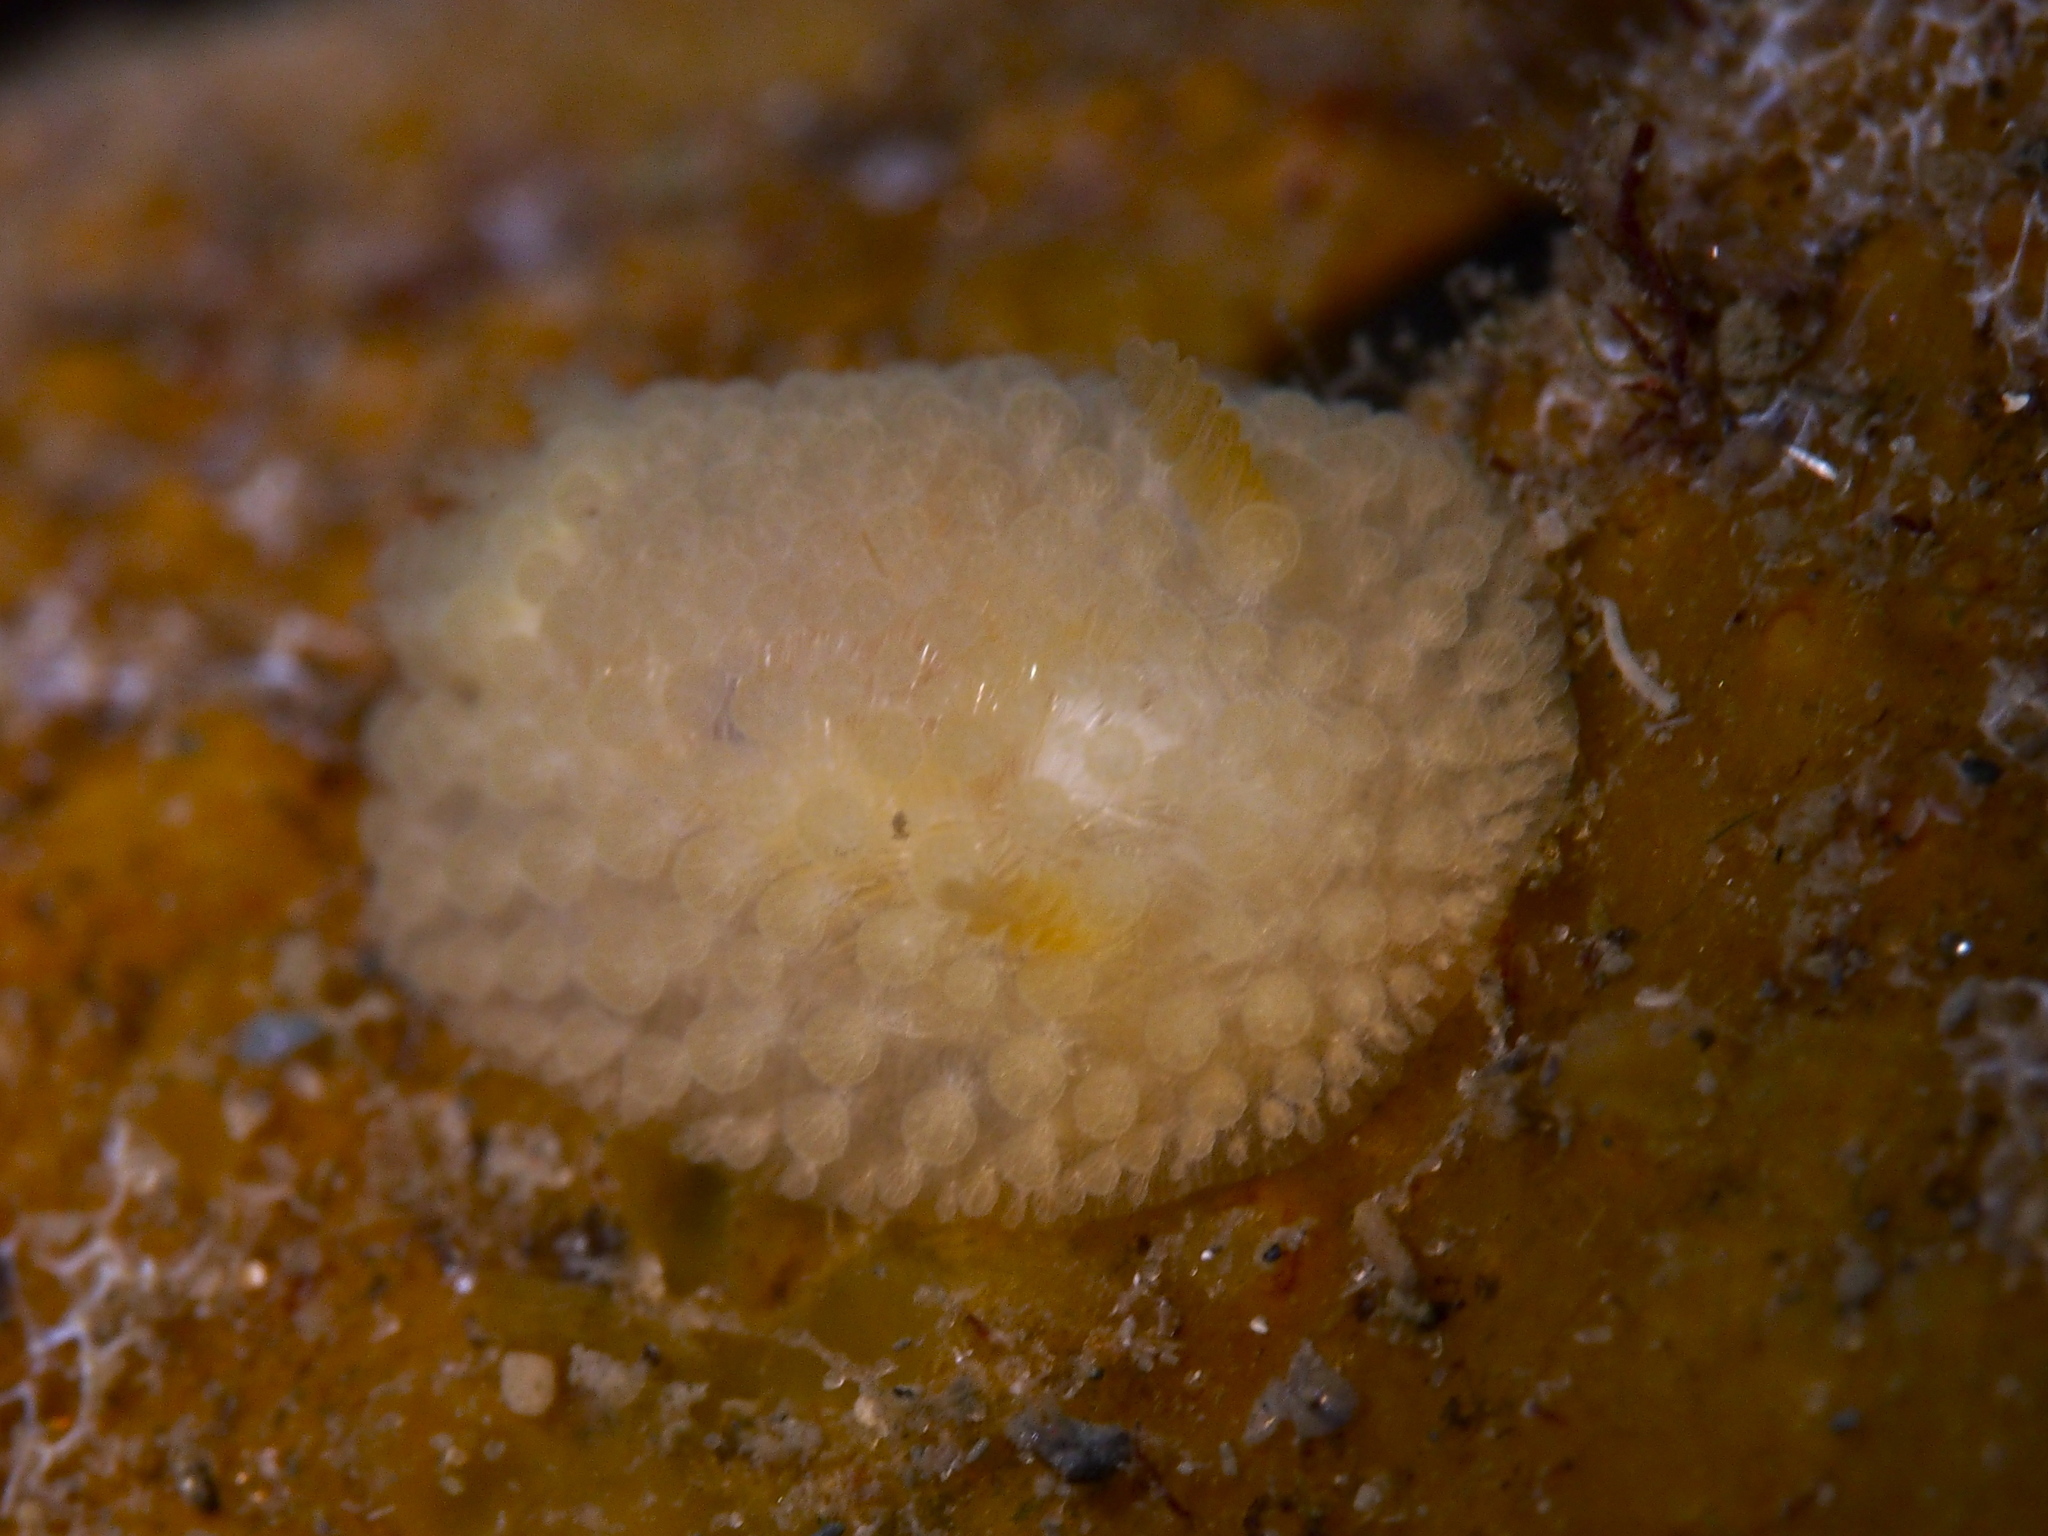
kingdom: Animalia
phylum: Mollusca
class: Gastropoda
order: Nudibranchia
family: Onchidorididae
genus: Onchidoris
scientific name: Onchidoris muricata
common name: Rough doris
